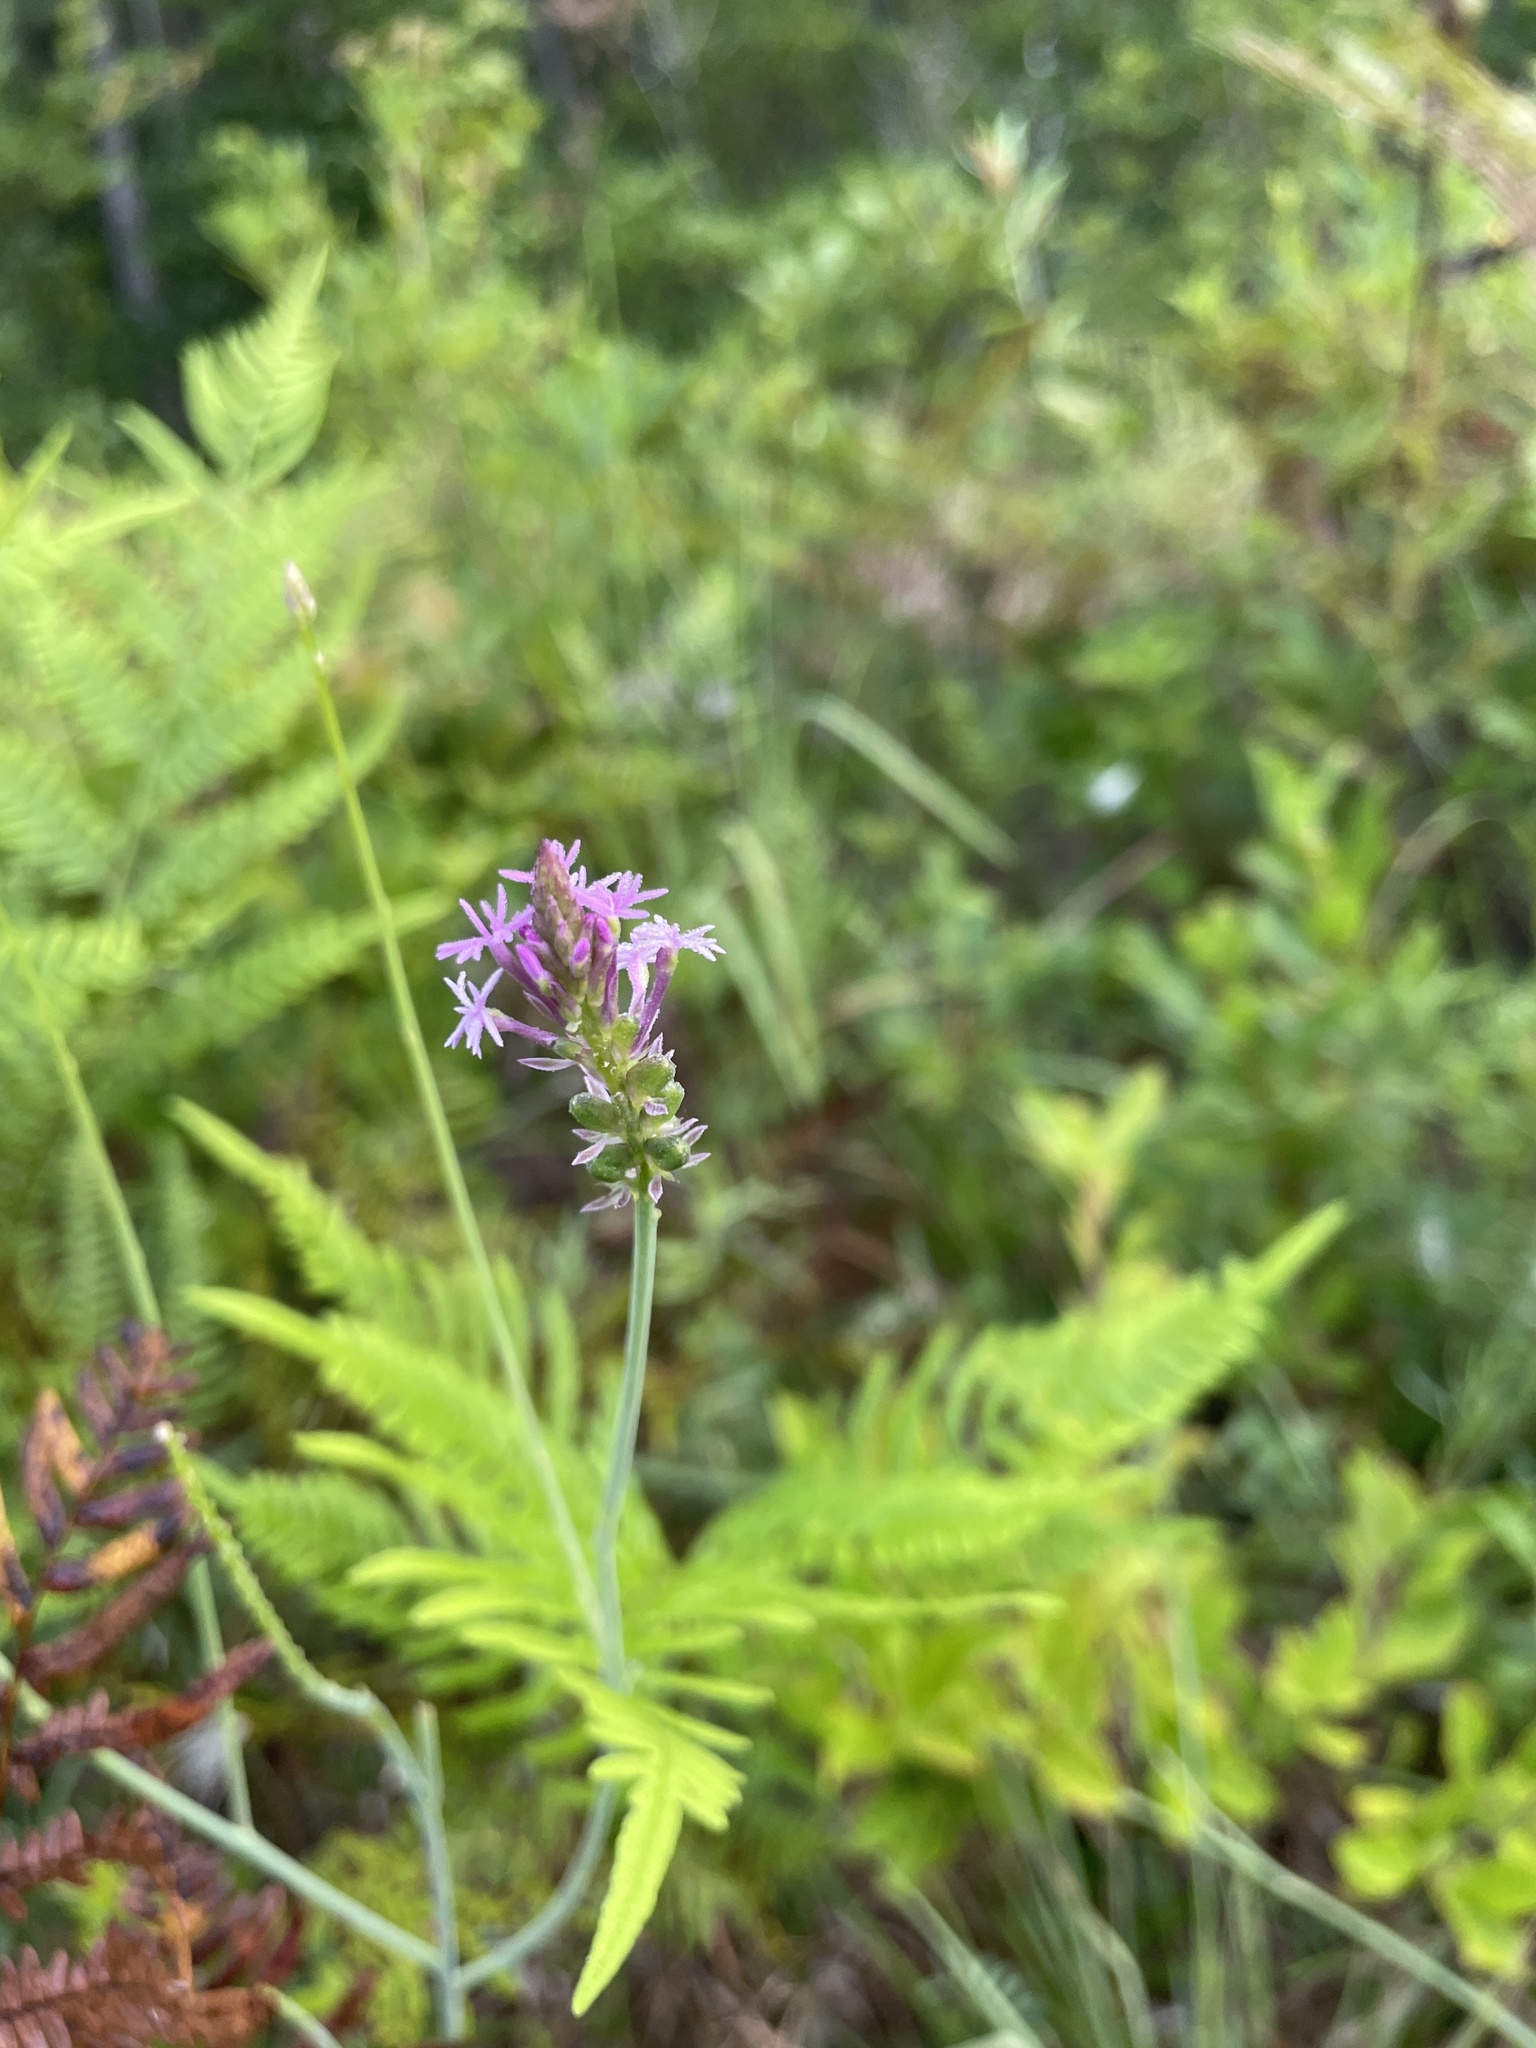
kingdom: Plantae
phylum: Tracheophyta
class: Magnoliopsida
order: Fabales
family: Polygalaceae
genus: Polygala
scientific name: Polygala incarnata
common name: Pink milkwort
